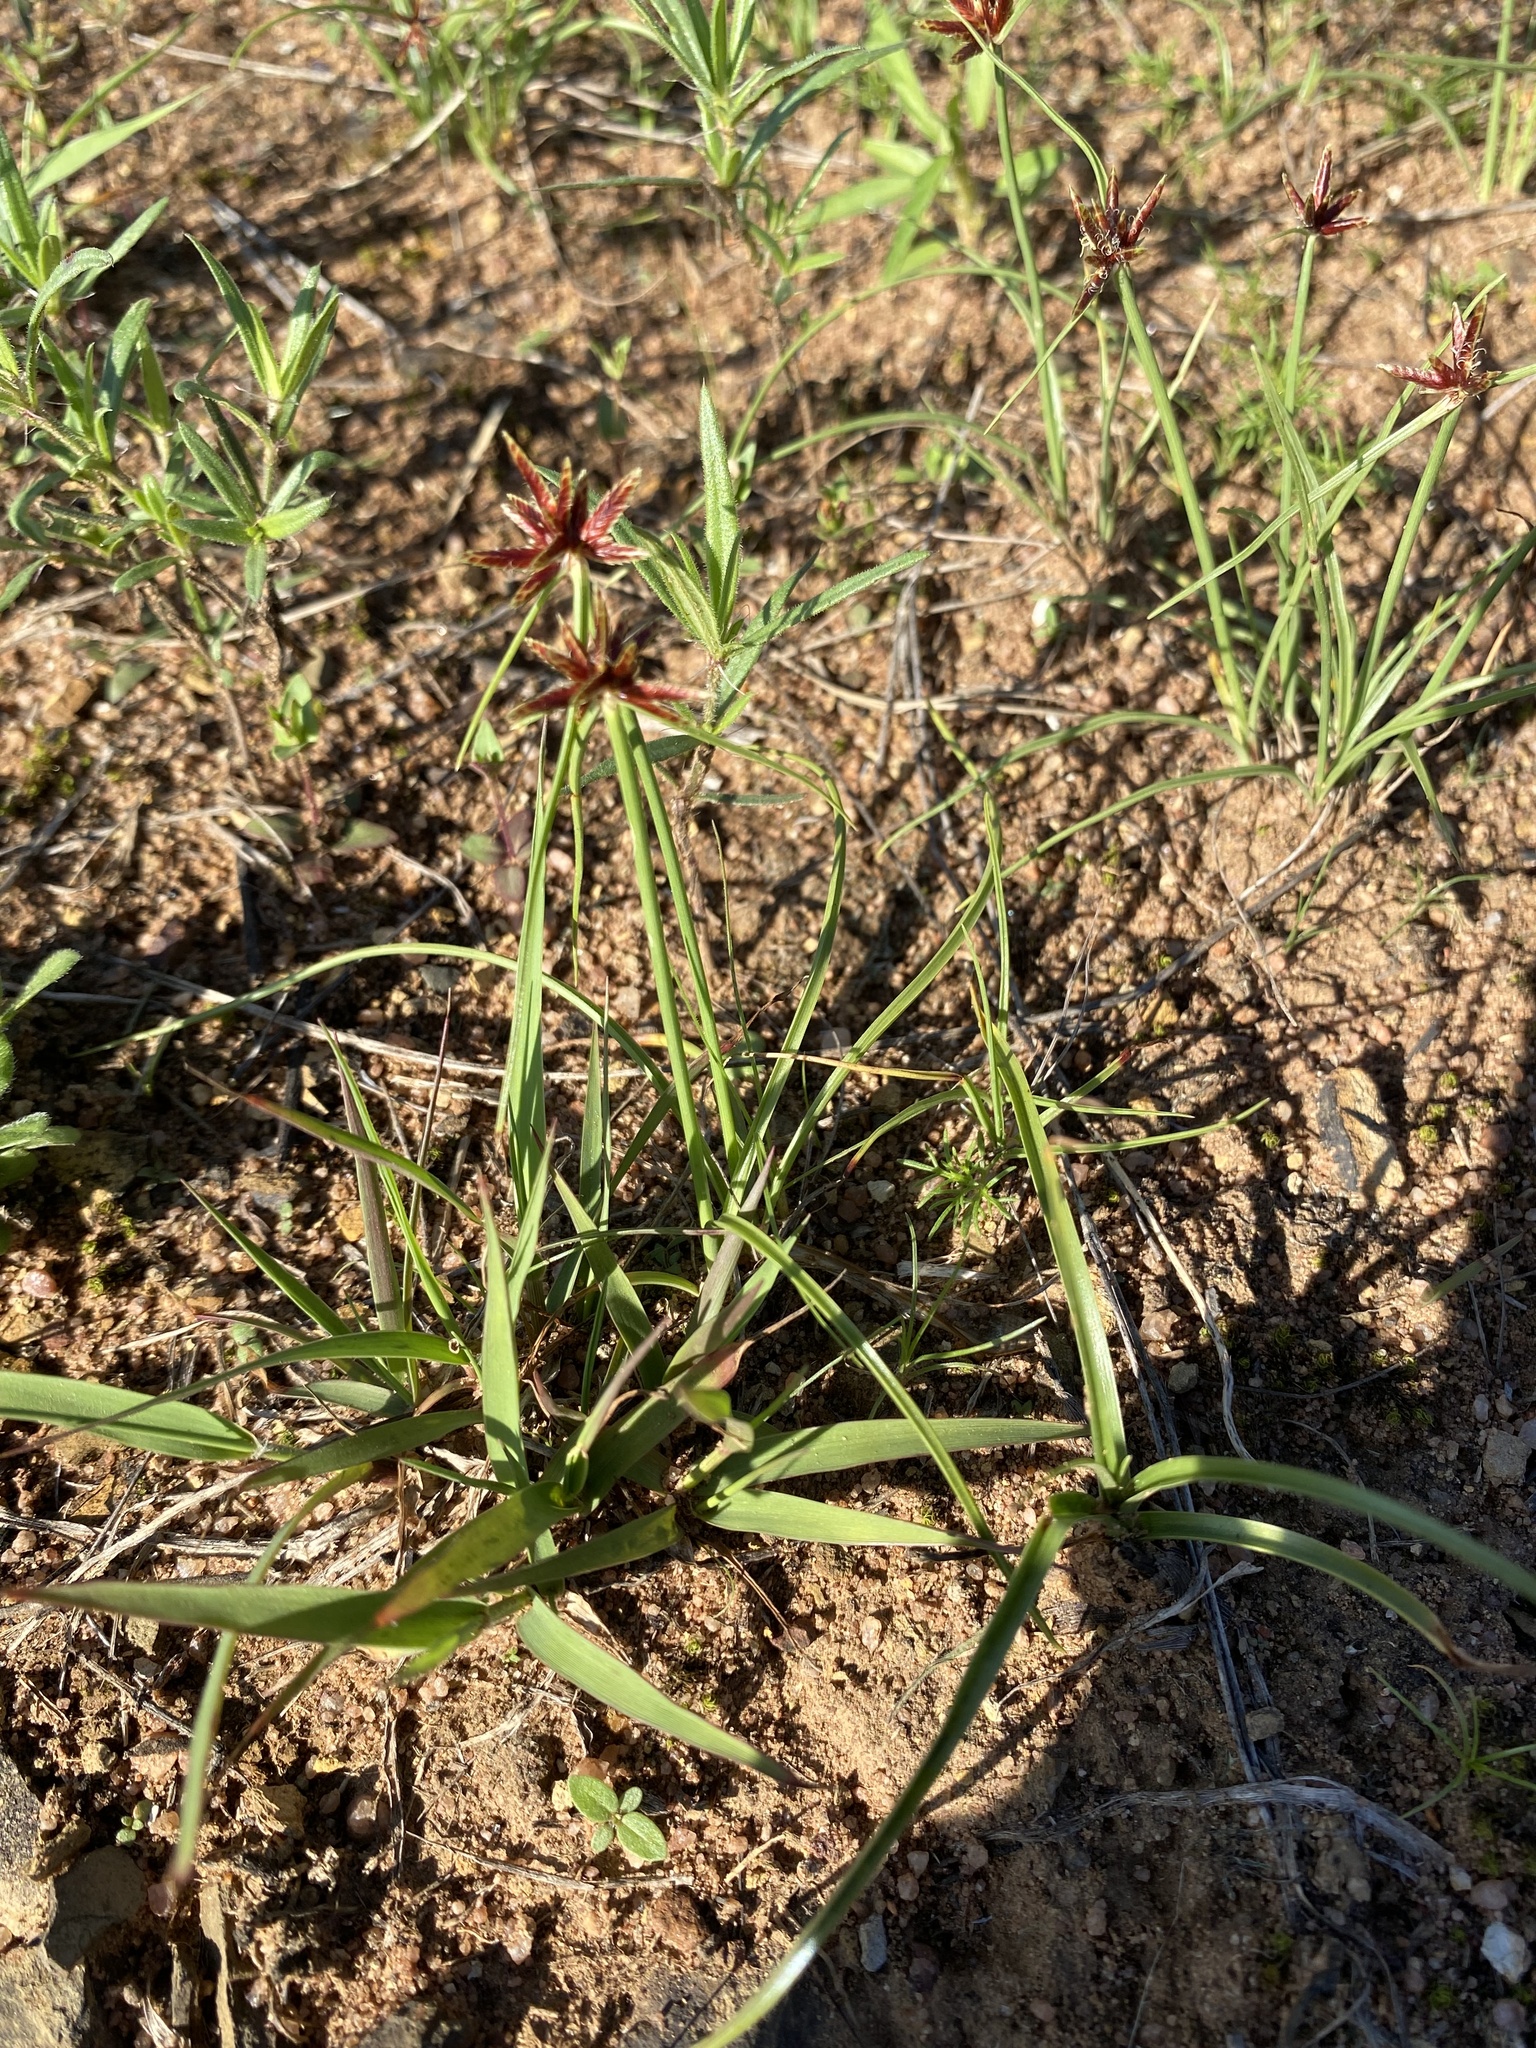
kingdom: Plantae
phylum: Tracheophyta
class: Liliopsida
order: Poales
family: Cyperaceae
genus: Cyperus
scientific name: Cyperus rupestris
